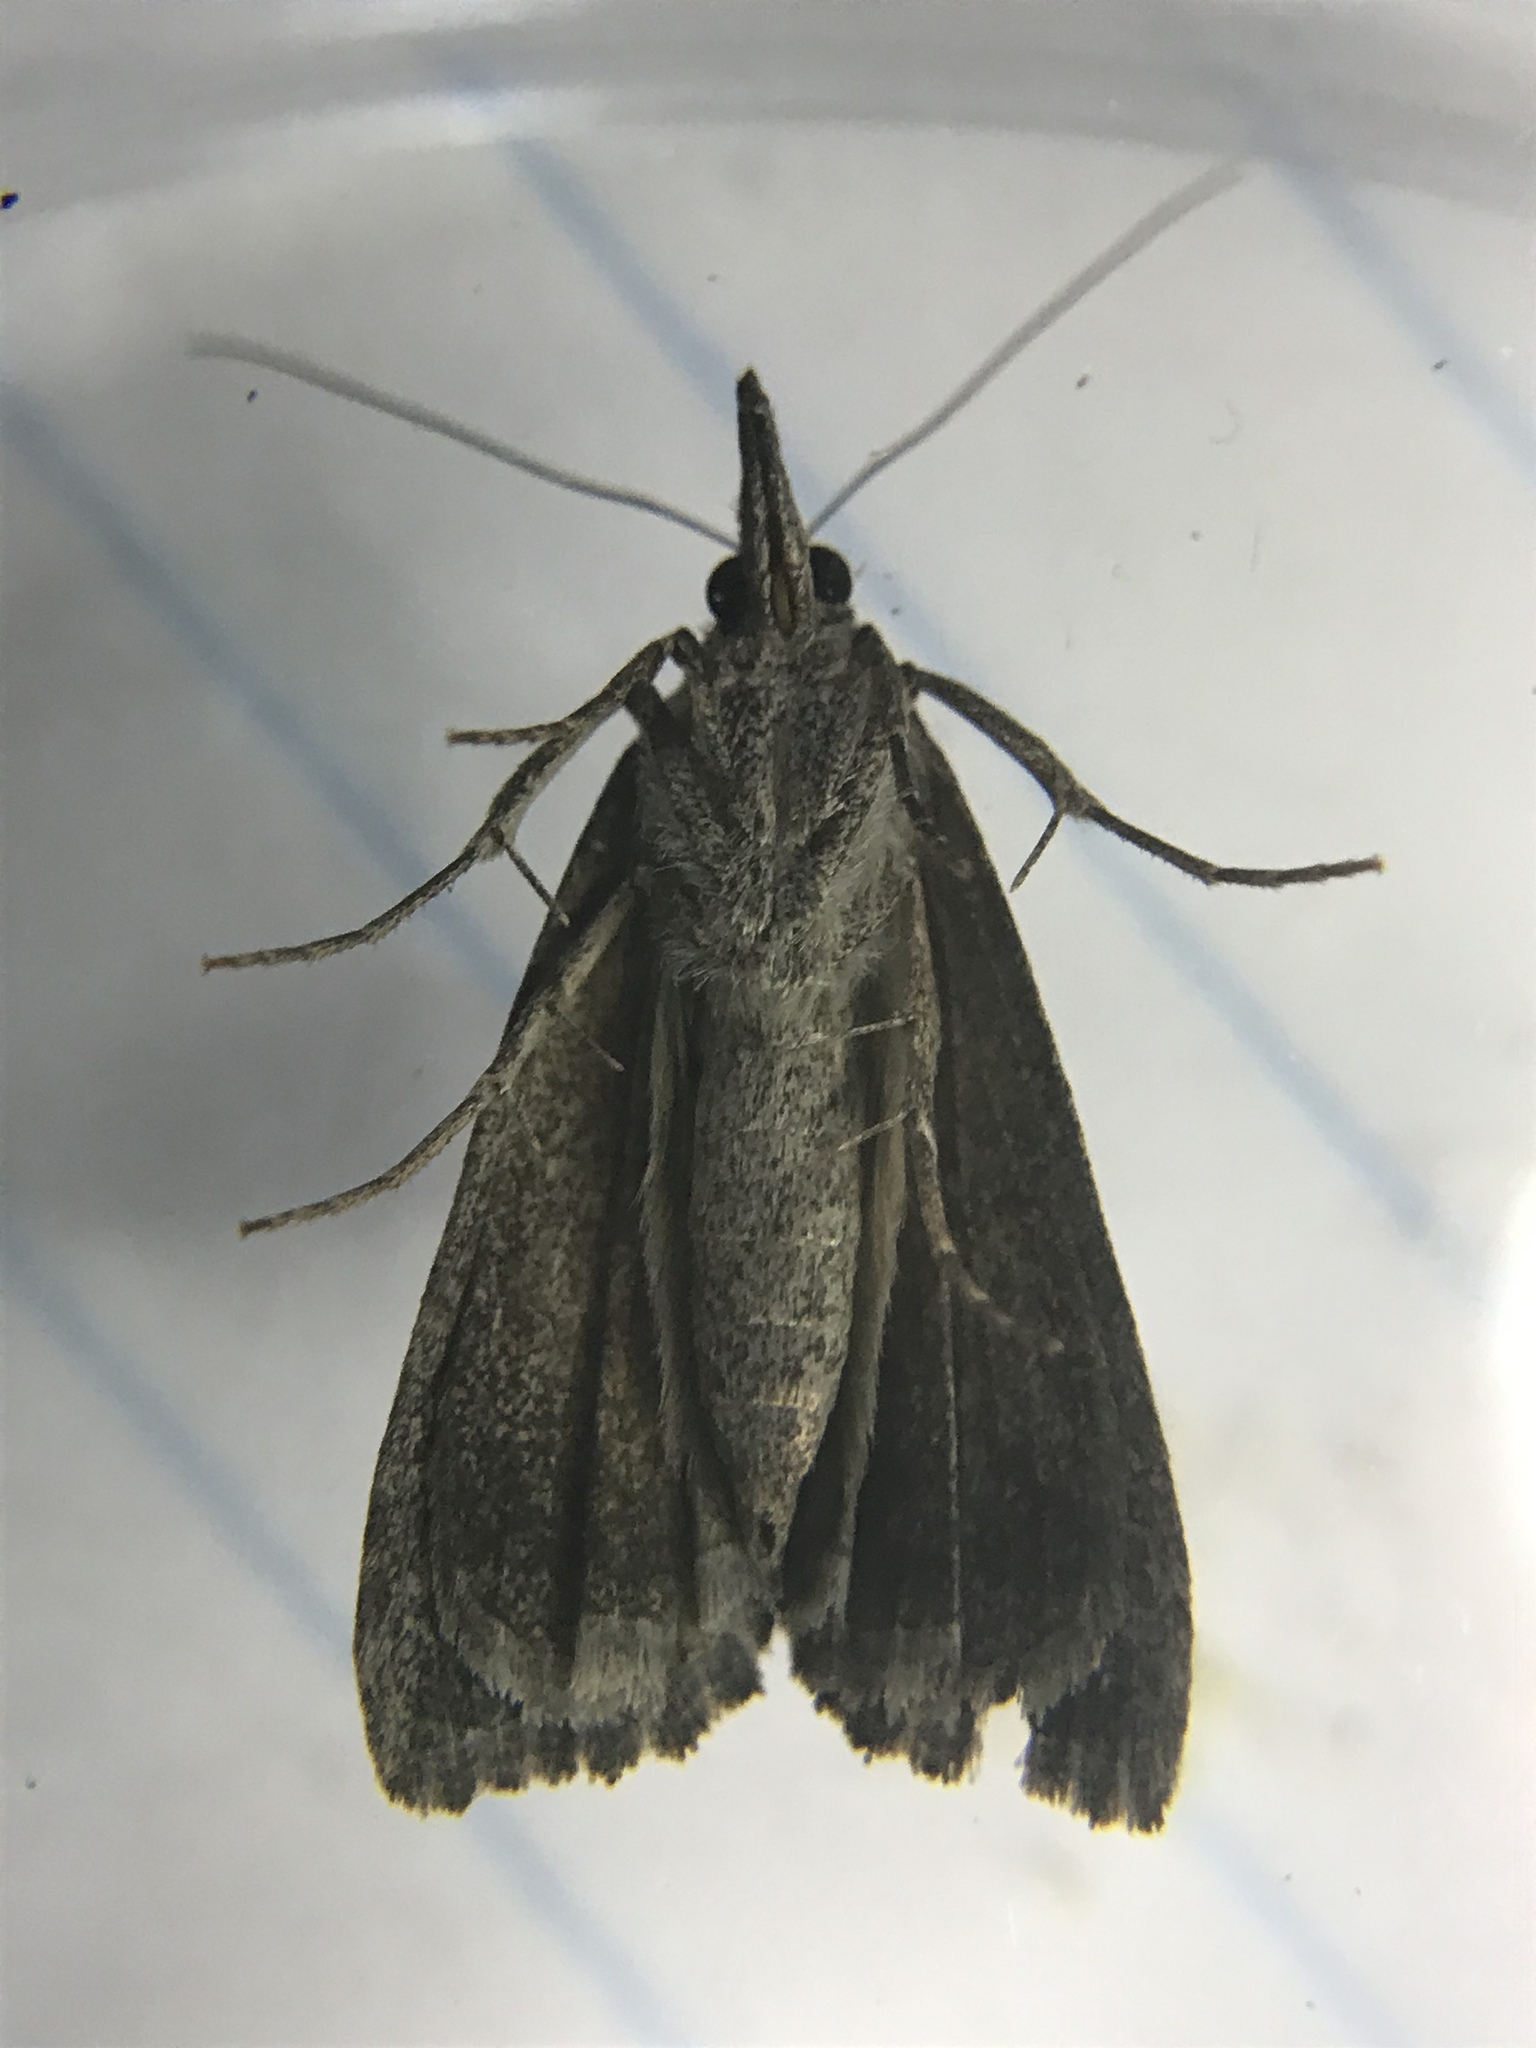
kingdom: Animalia
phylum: Arthropoda
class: Insecta
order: Lepidoptera
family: Erebidae
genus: Hypena
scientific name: Hypena scabra
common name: Green cloverworm
